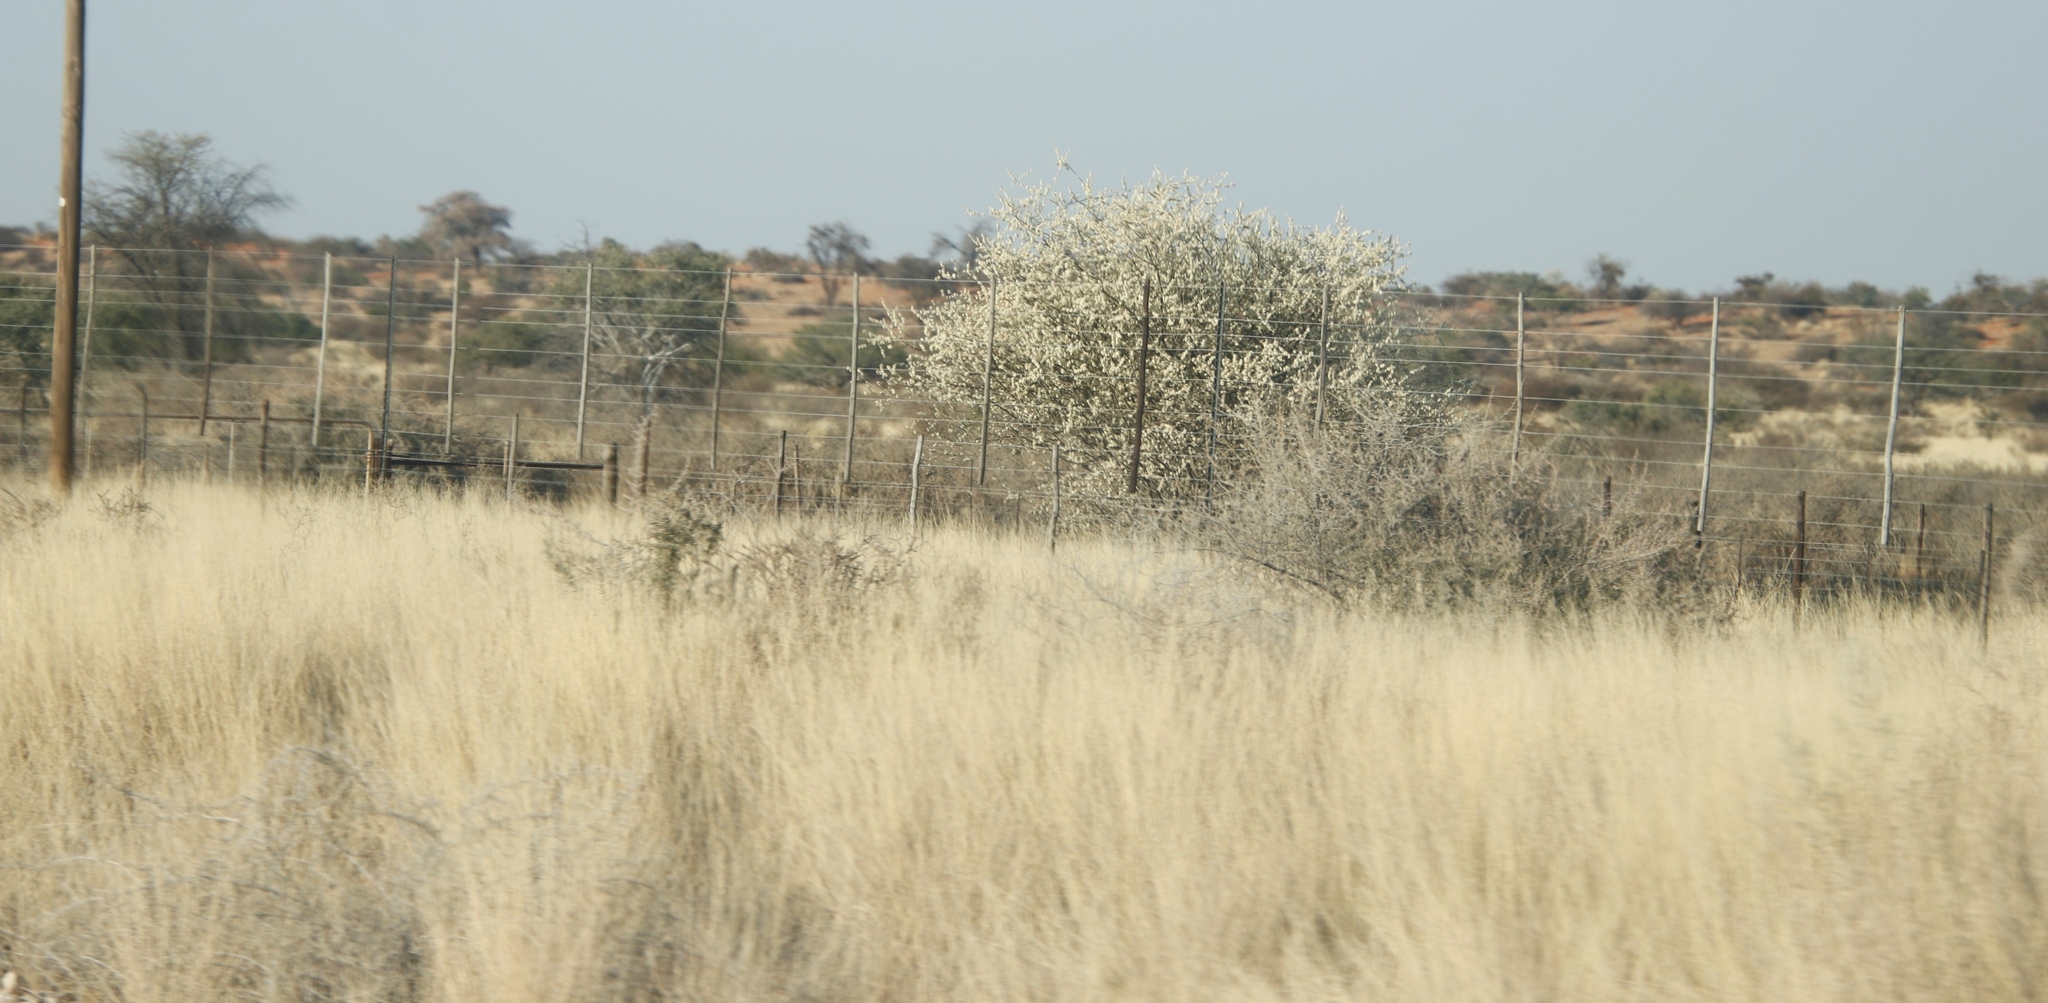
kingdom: Plantae
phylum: Tracheophyta
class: Magnoliopsida
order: Fabales
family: Fabaceae
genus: Senegalia
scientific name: Senegalia mellifera
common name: Hookthorn
